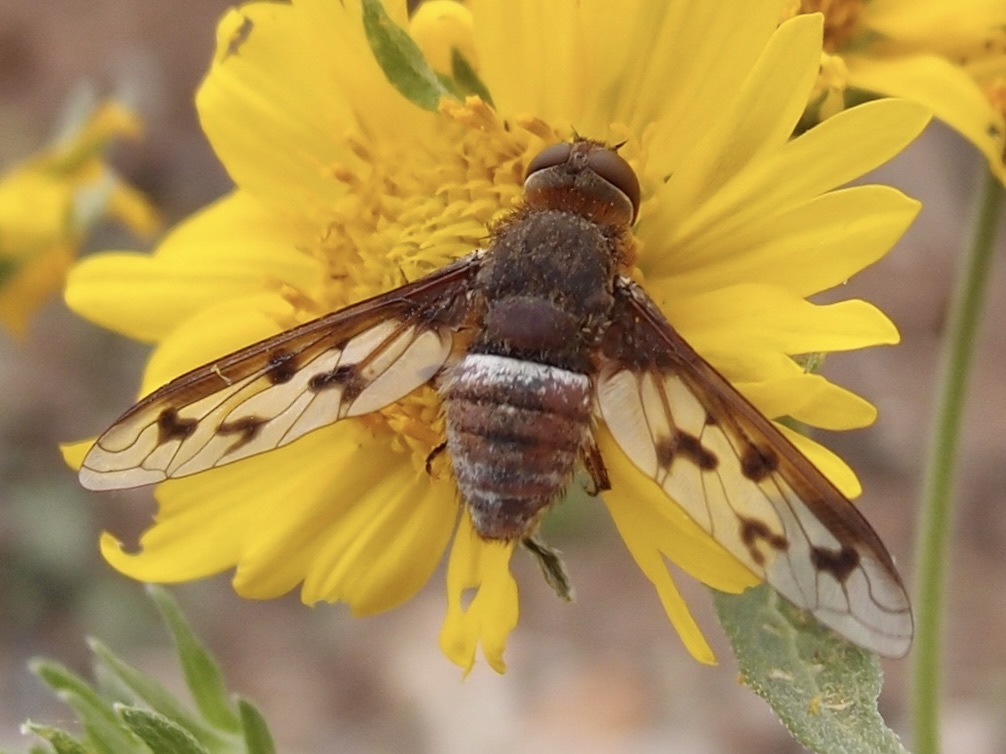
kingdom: Animalia
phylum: Arthropoda
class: Insecta
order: Diptera
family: Bombyliidae
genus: Nyia
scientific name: Nyia gazophylax
